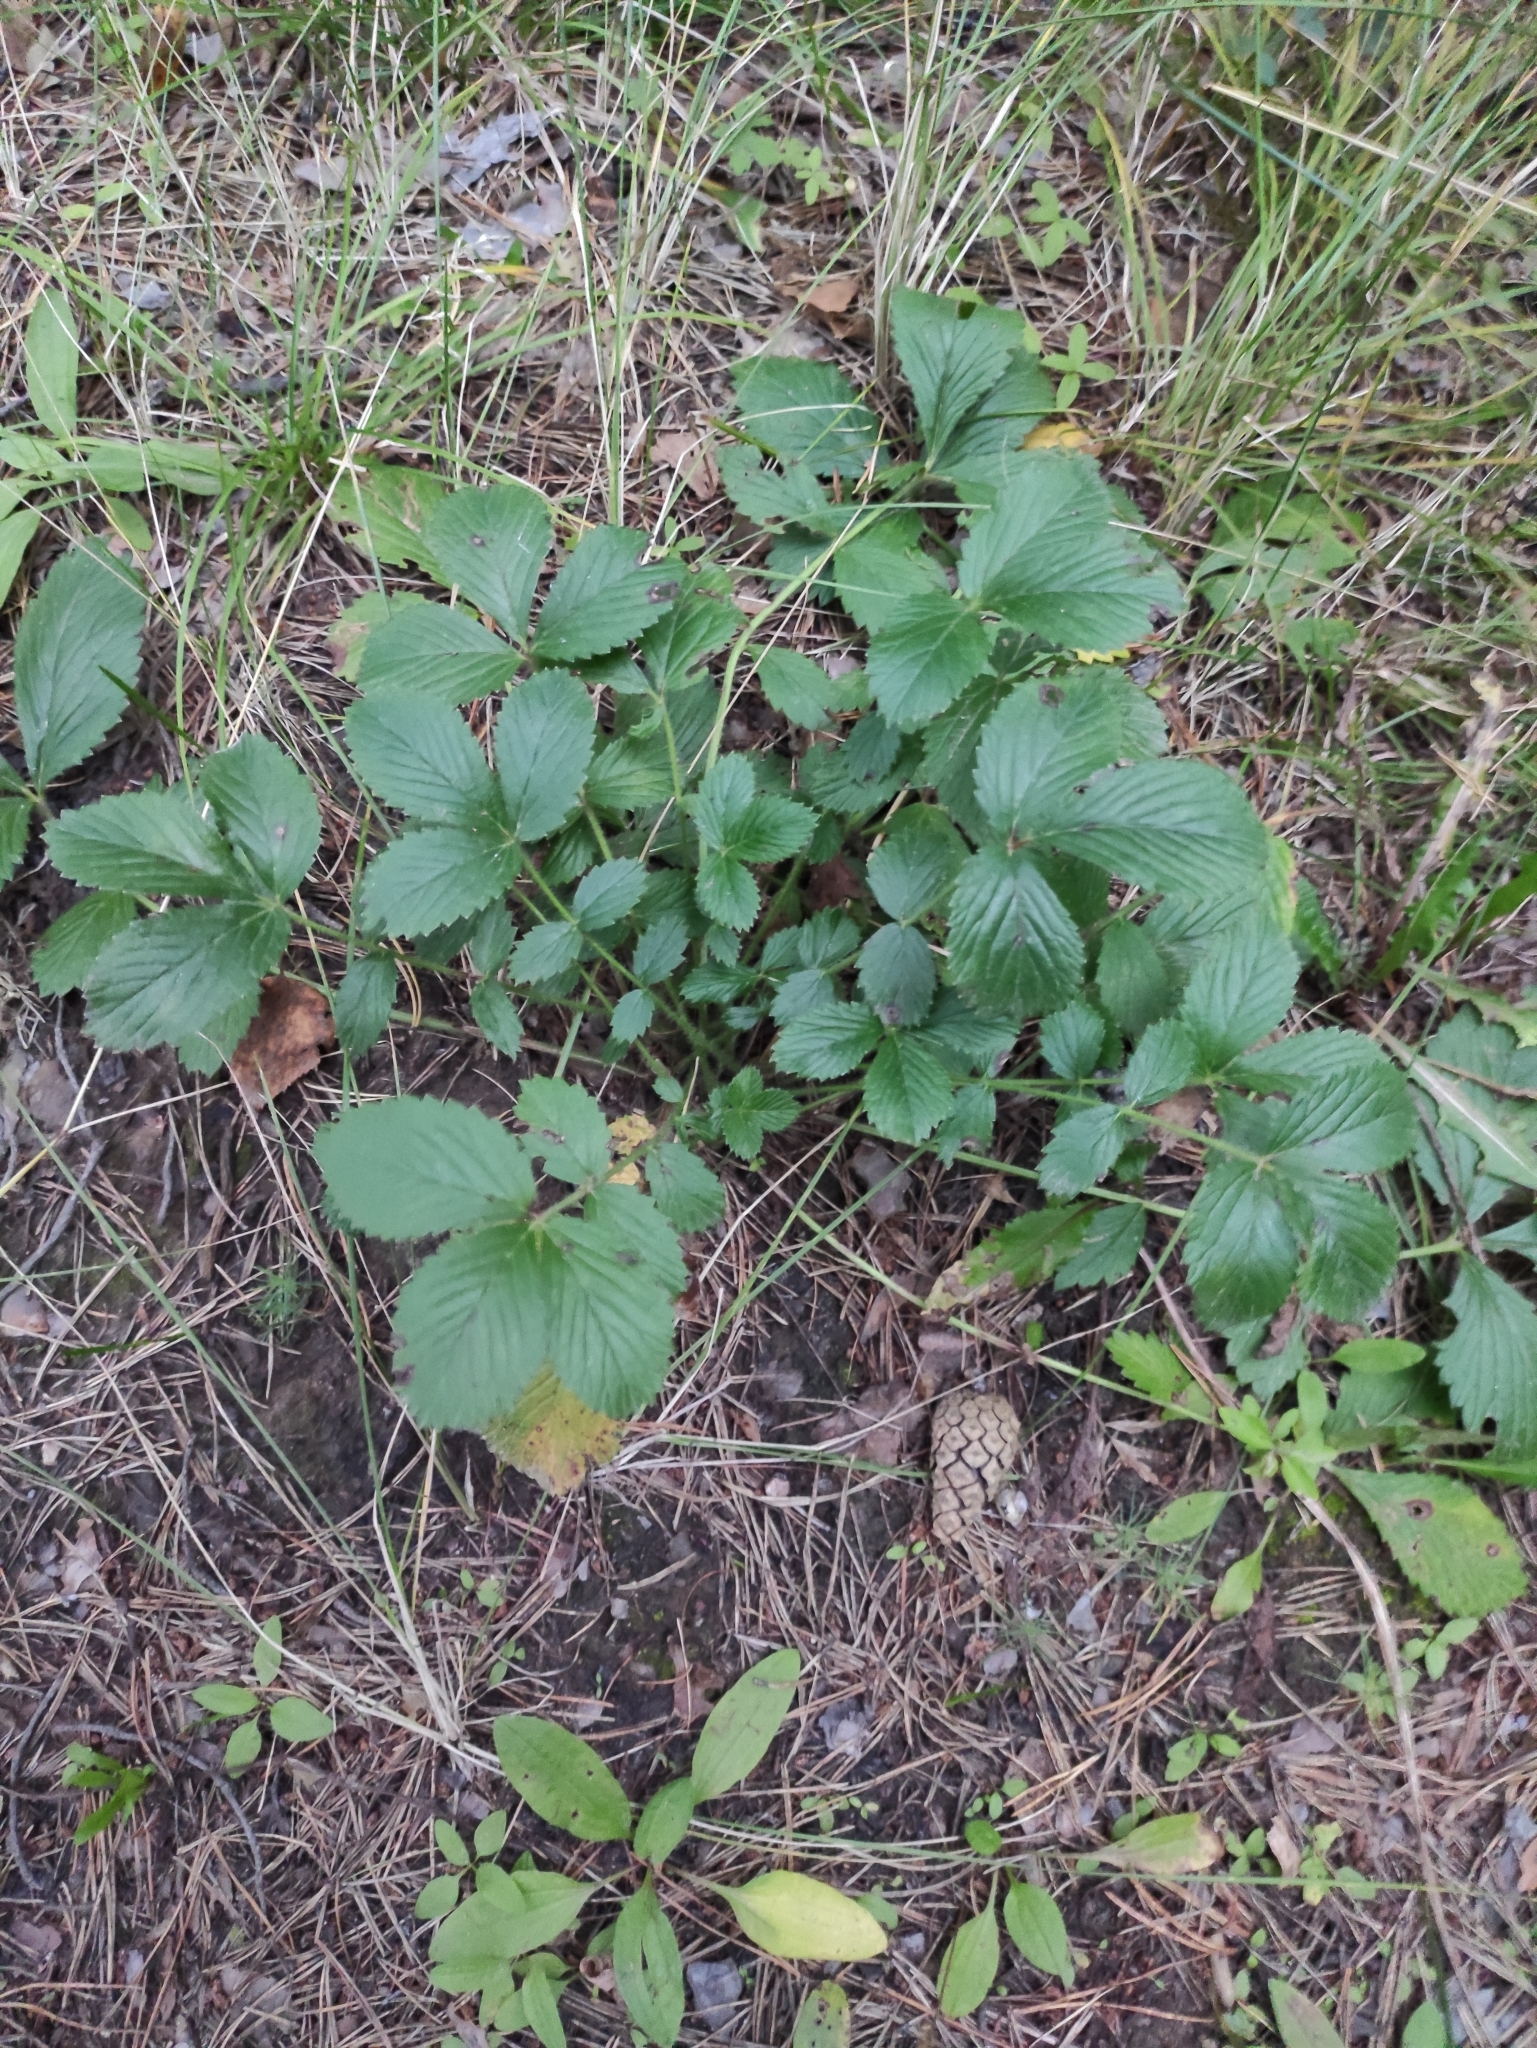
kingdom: Plantae
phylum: Tracheophyta
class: Magnoliopsida
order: Rosales
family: Rosaceae
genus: Potentilla
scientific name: Potentilla fragarioides
